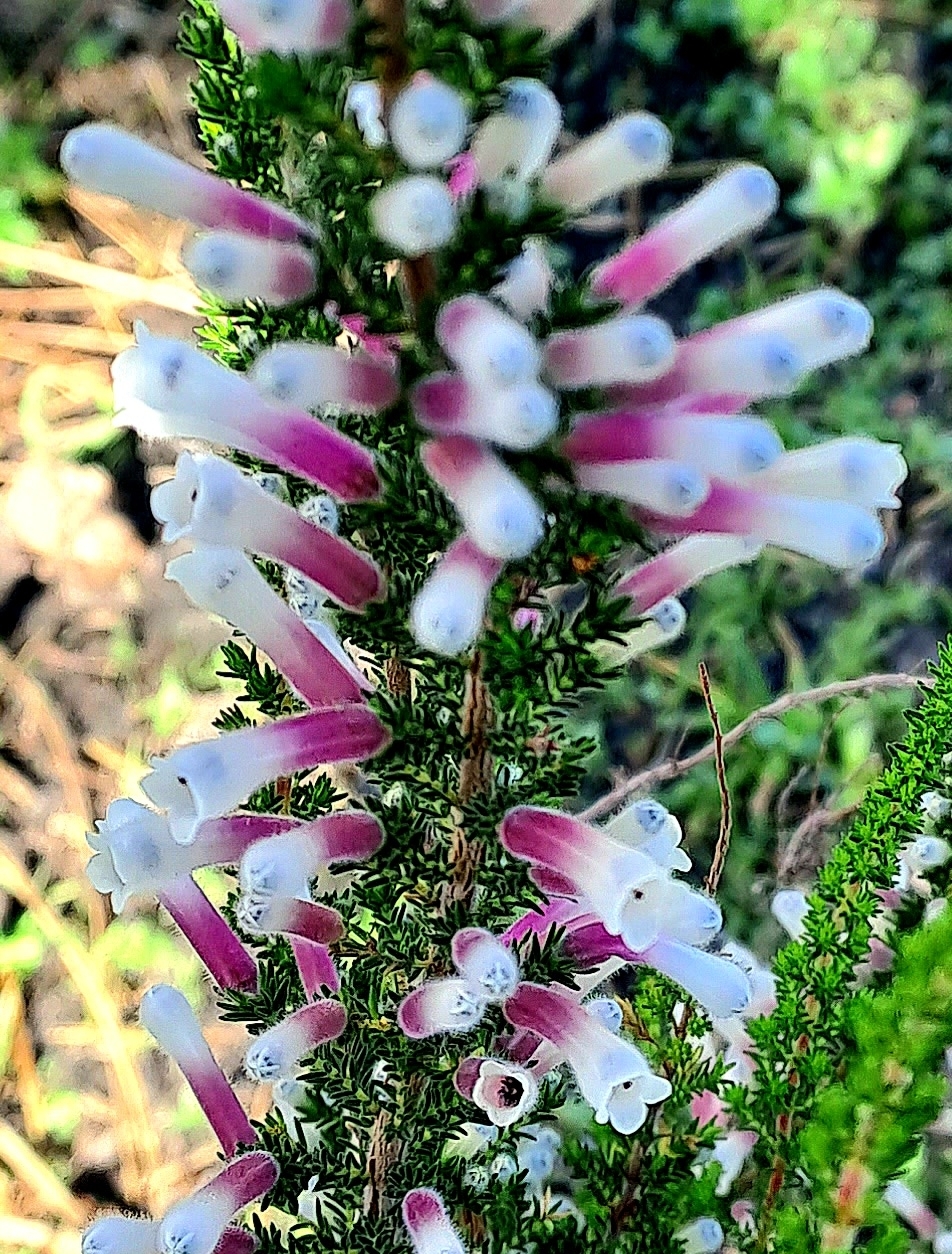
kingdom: Plantae
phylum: Tracheophyta
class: Magnoliopsida
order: Ericales
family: Ericaceae
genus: Erica
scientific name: Erica perspicua
